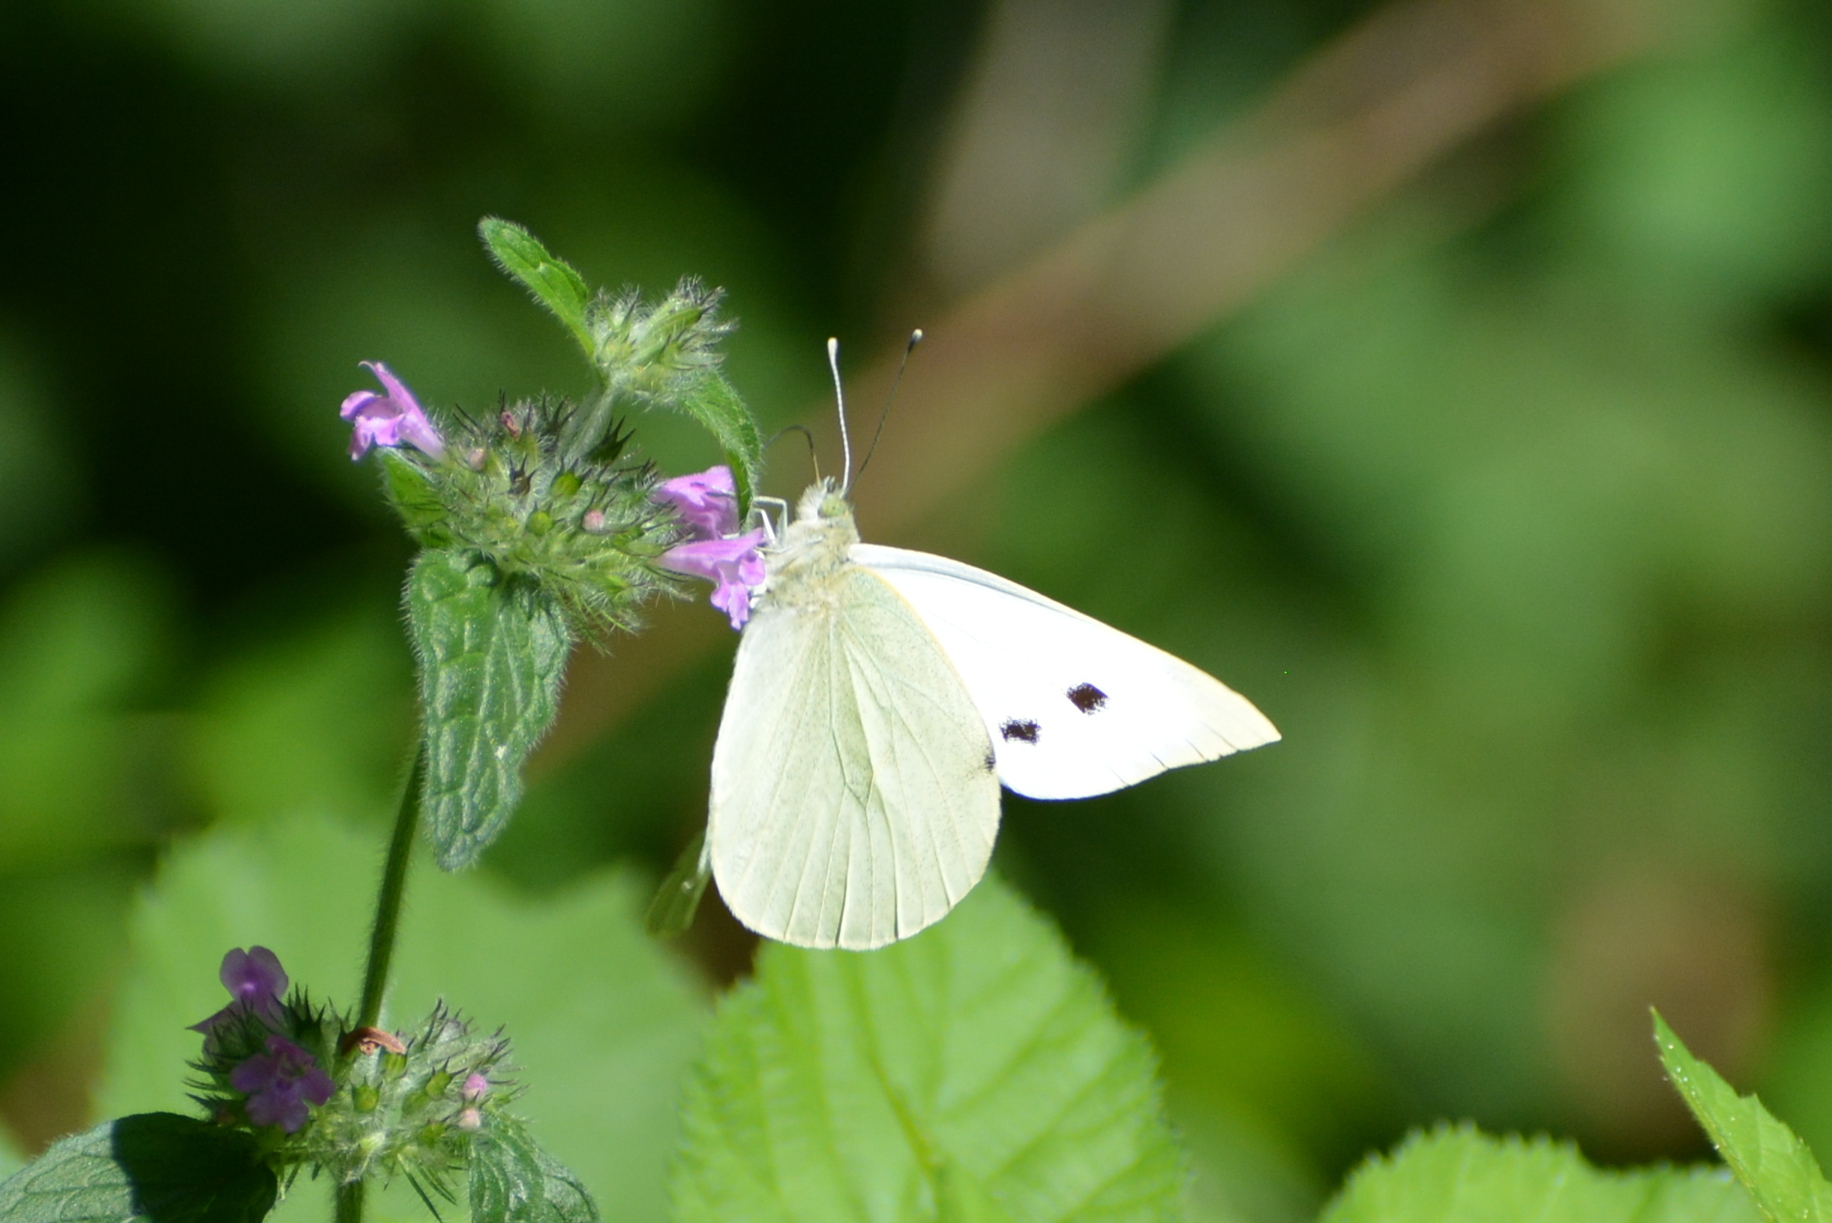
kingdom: Animalia
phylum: Arthropoda
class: Insecta
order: Lepidoptera
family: Pieridae
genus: Pieris
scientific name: Pieris brassicae
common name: Large white
